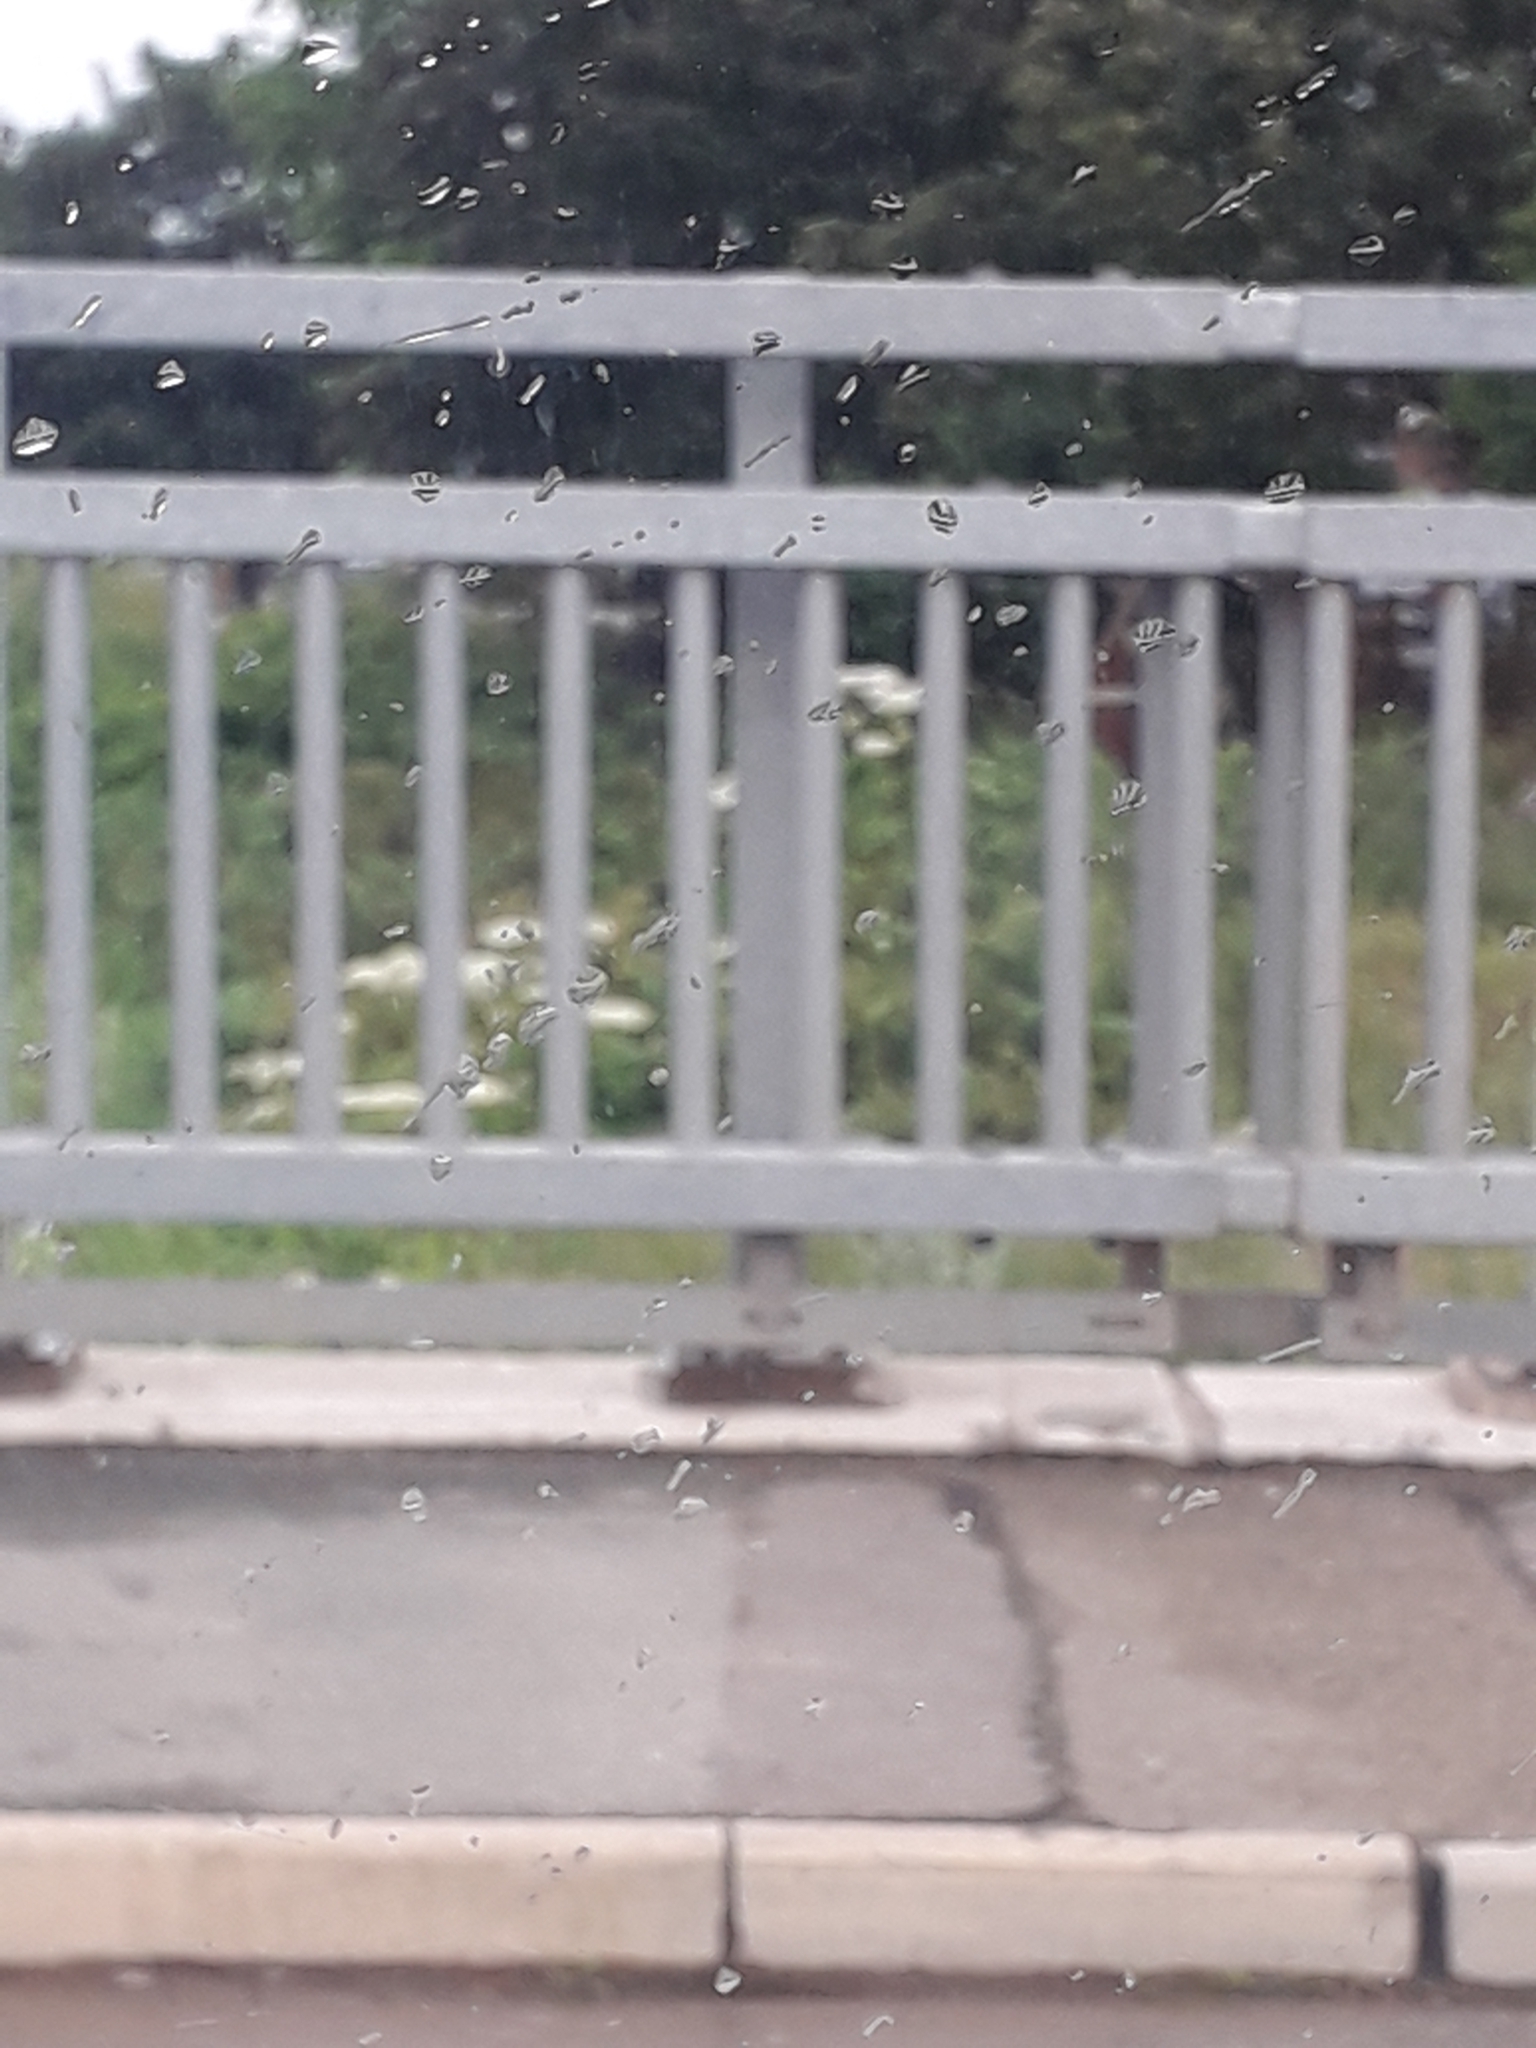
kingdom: Plantae
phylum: Tracheophyta
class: Magnoliopsida
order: Apiales
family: Apiaceae
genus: Heracleum
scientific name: Heracleum mantegazzianum
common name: Giant hogweed
